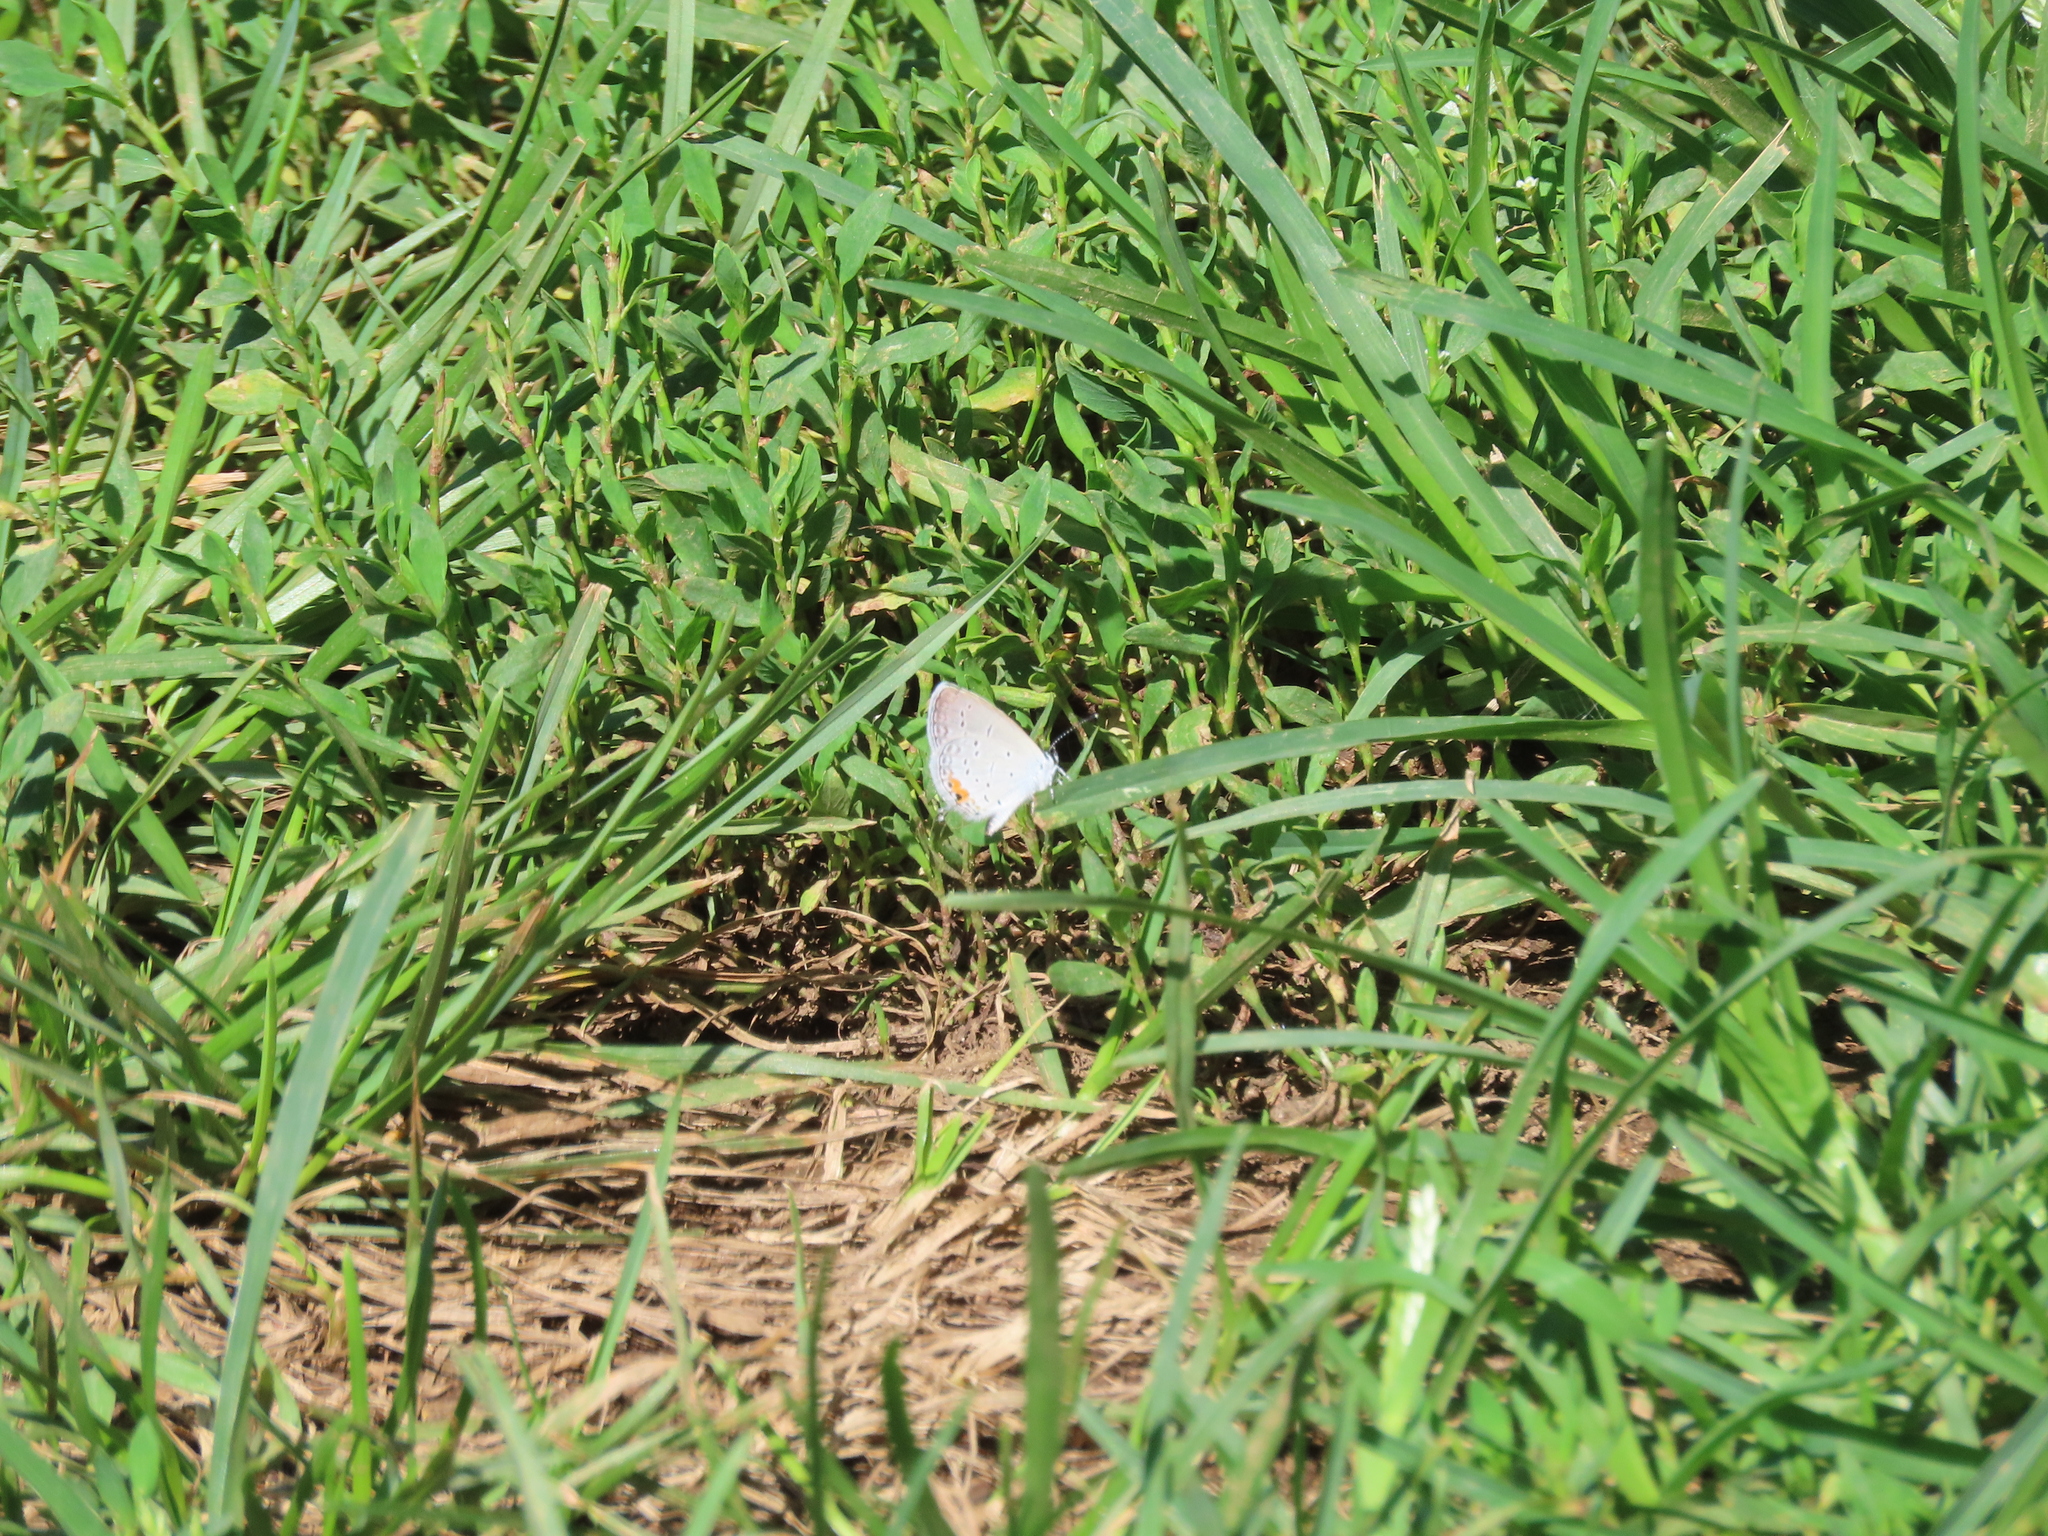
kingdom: Animalia
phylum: Arthropoda
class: Insecta
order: Lepidoptera
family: Lycaenidae
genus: Elkalyce
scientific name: Elkalyce comyntas
